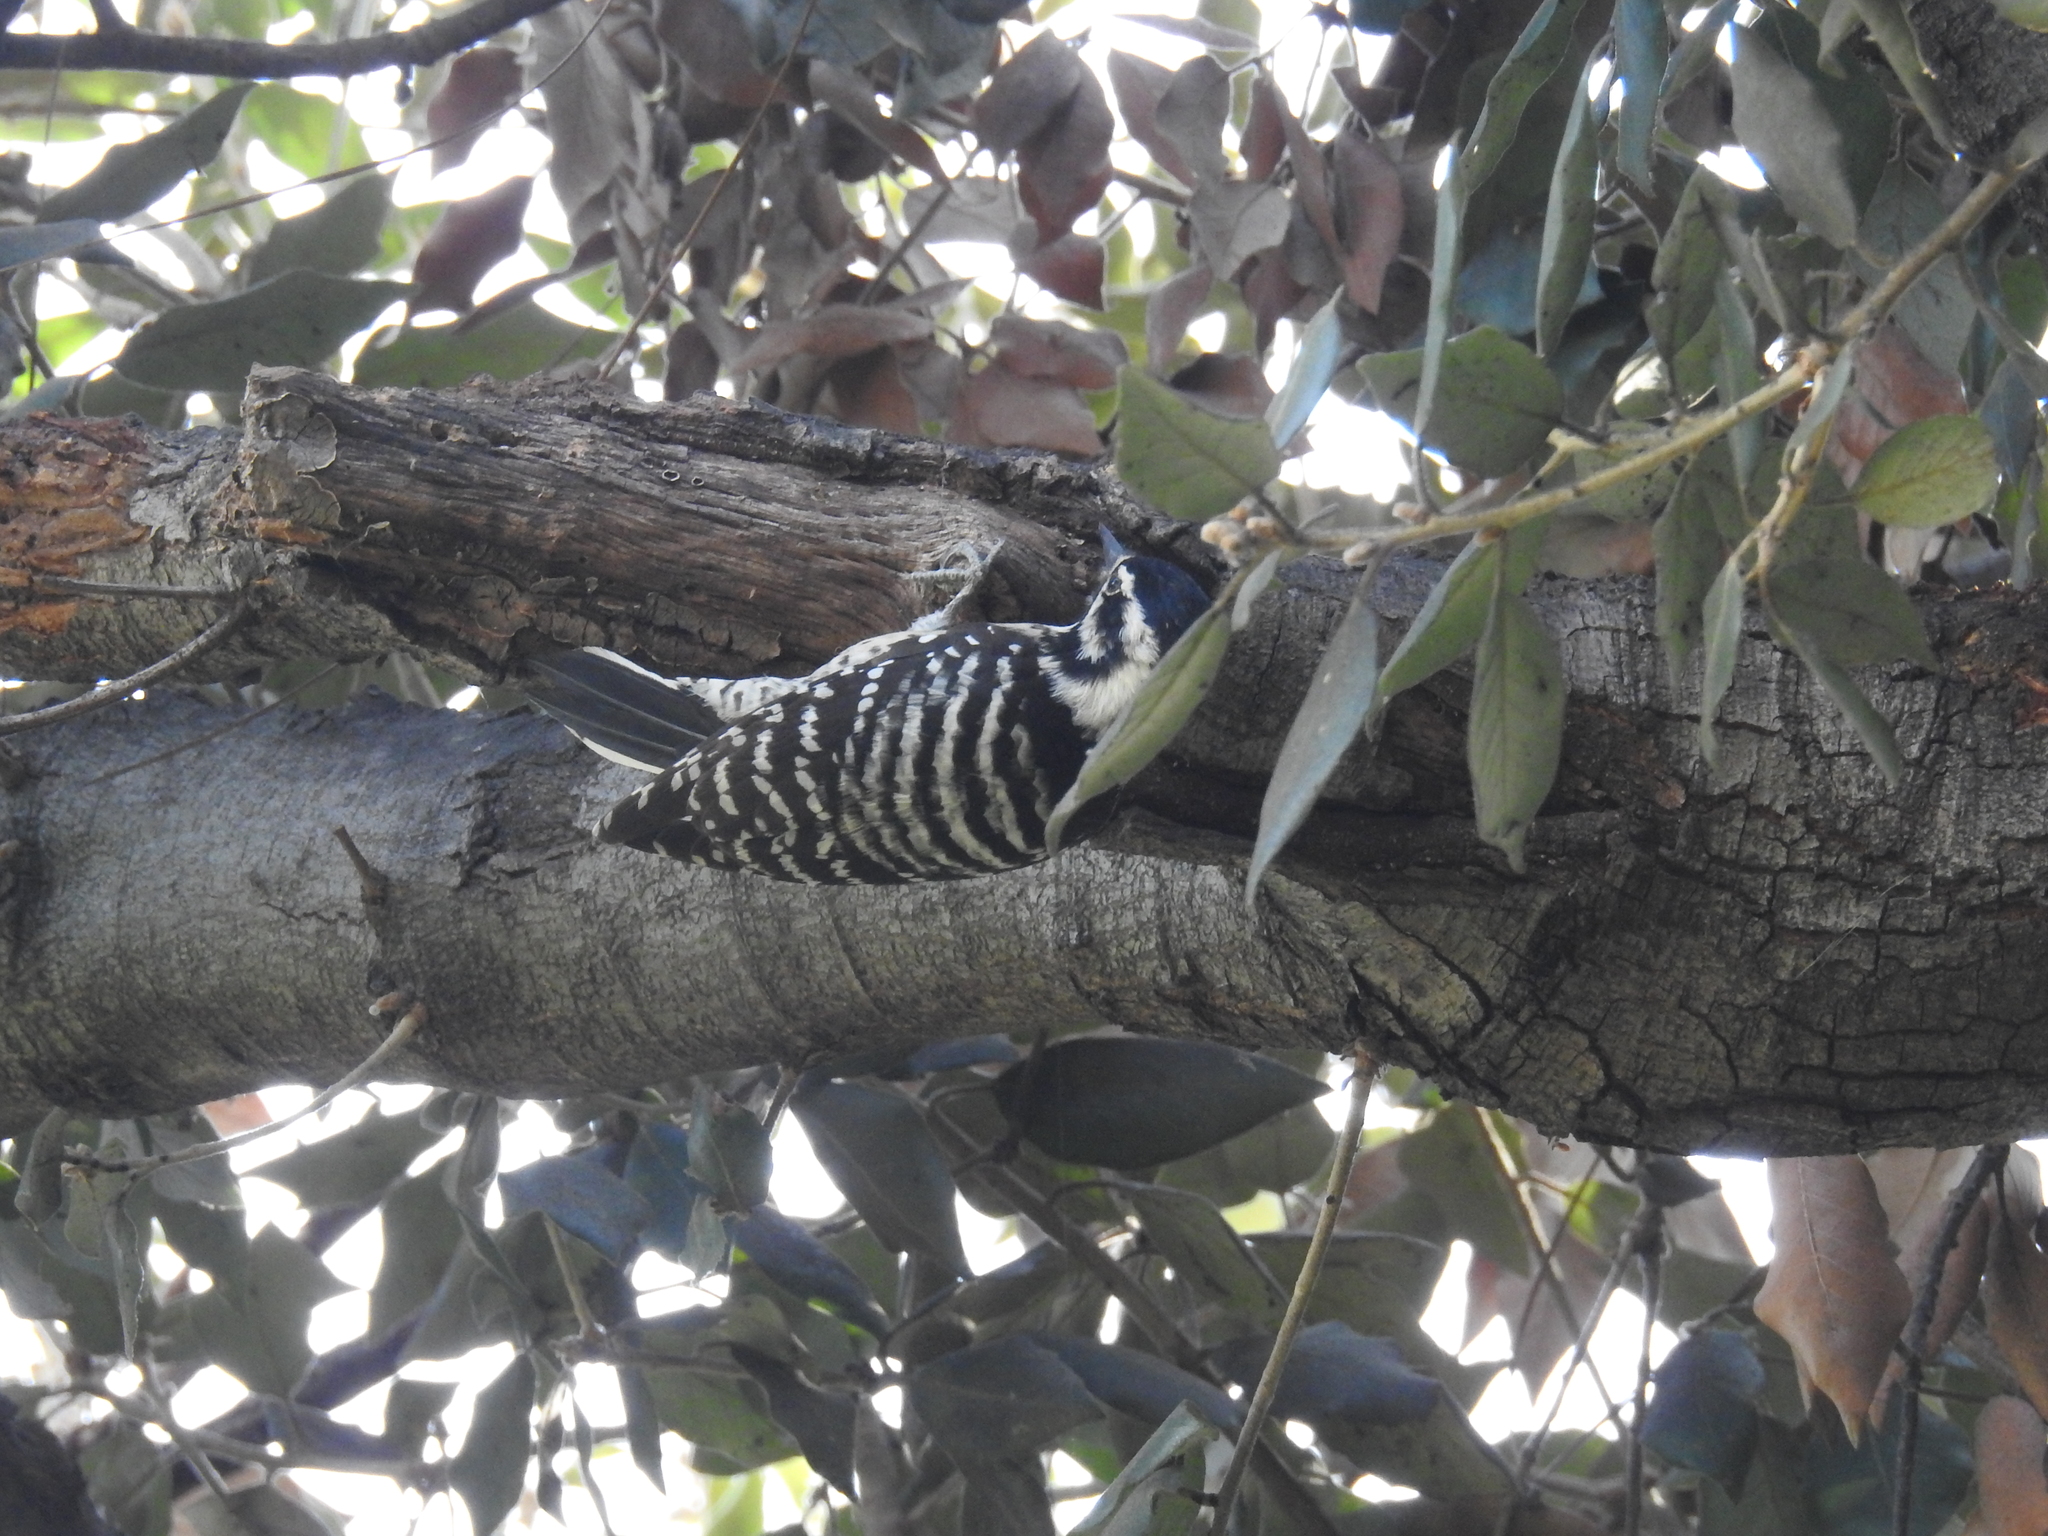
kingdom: Animalia
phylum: Chordata
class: Aves
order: Piciformes
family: Picidae
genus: Dryobates
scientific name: Dryobates nuttallii
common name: Nuttall's woodpecker
